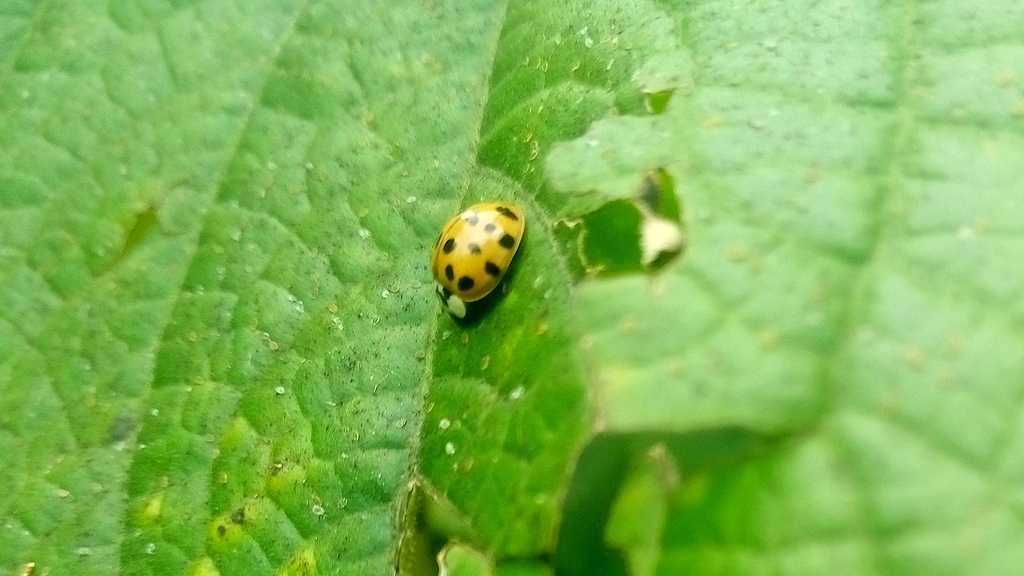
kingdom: Animalia
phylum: Arthropoda
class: Insecta
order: Coleoptera
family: Coccinellidae
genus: Harmonia
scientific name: Harmonia axyridis
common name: Harlequin ladybird
